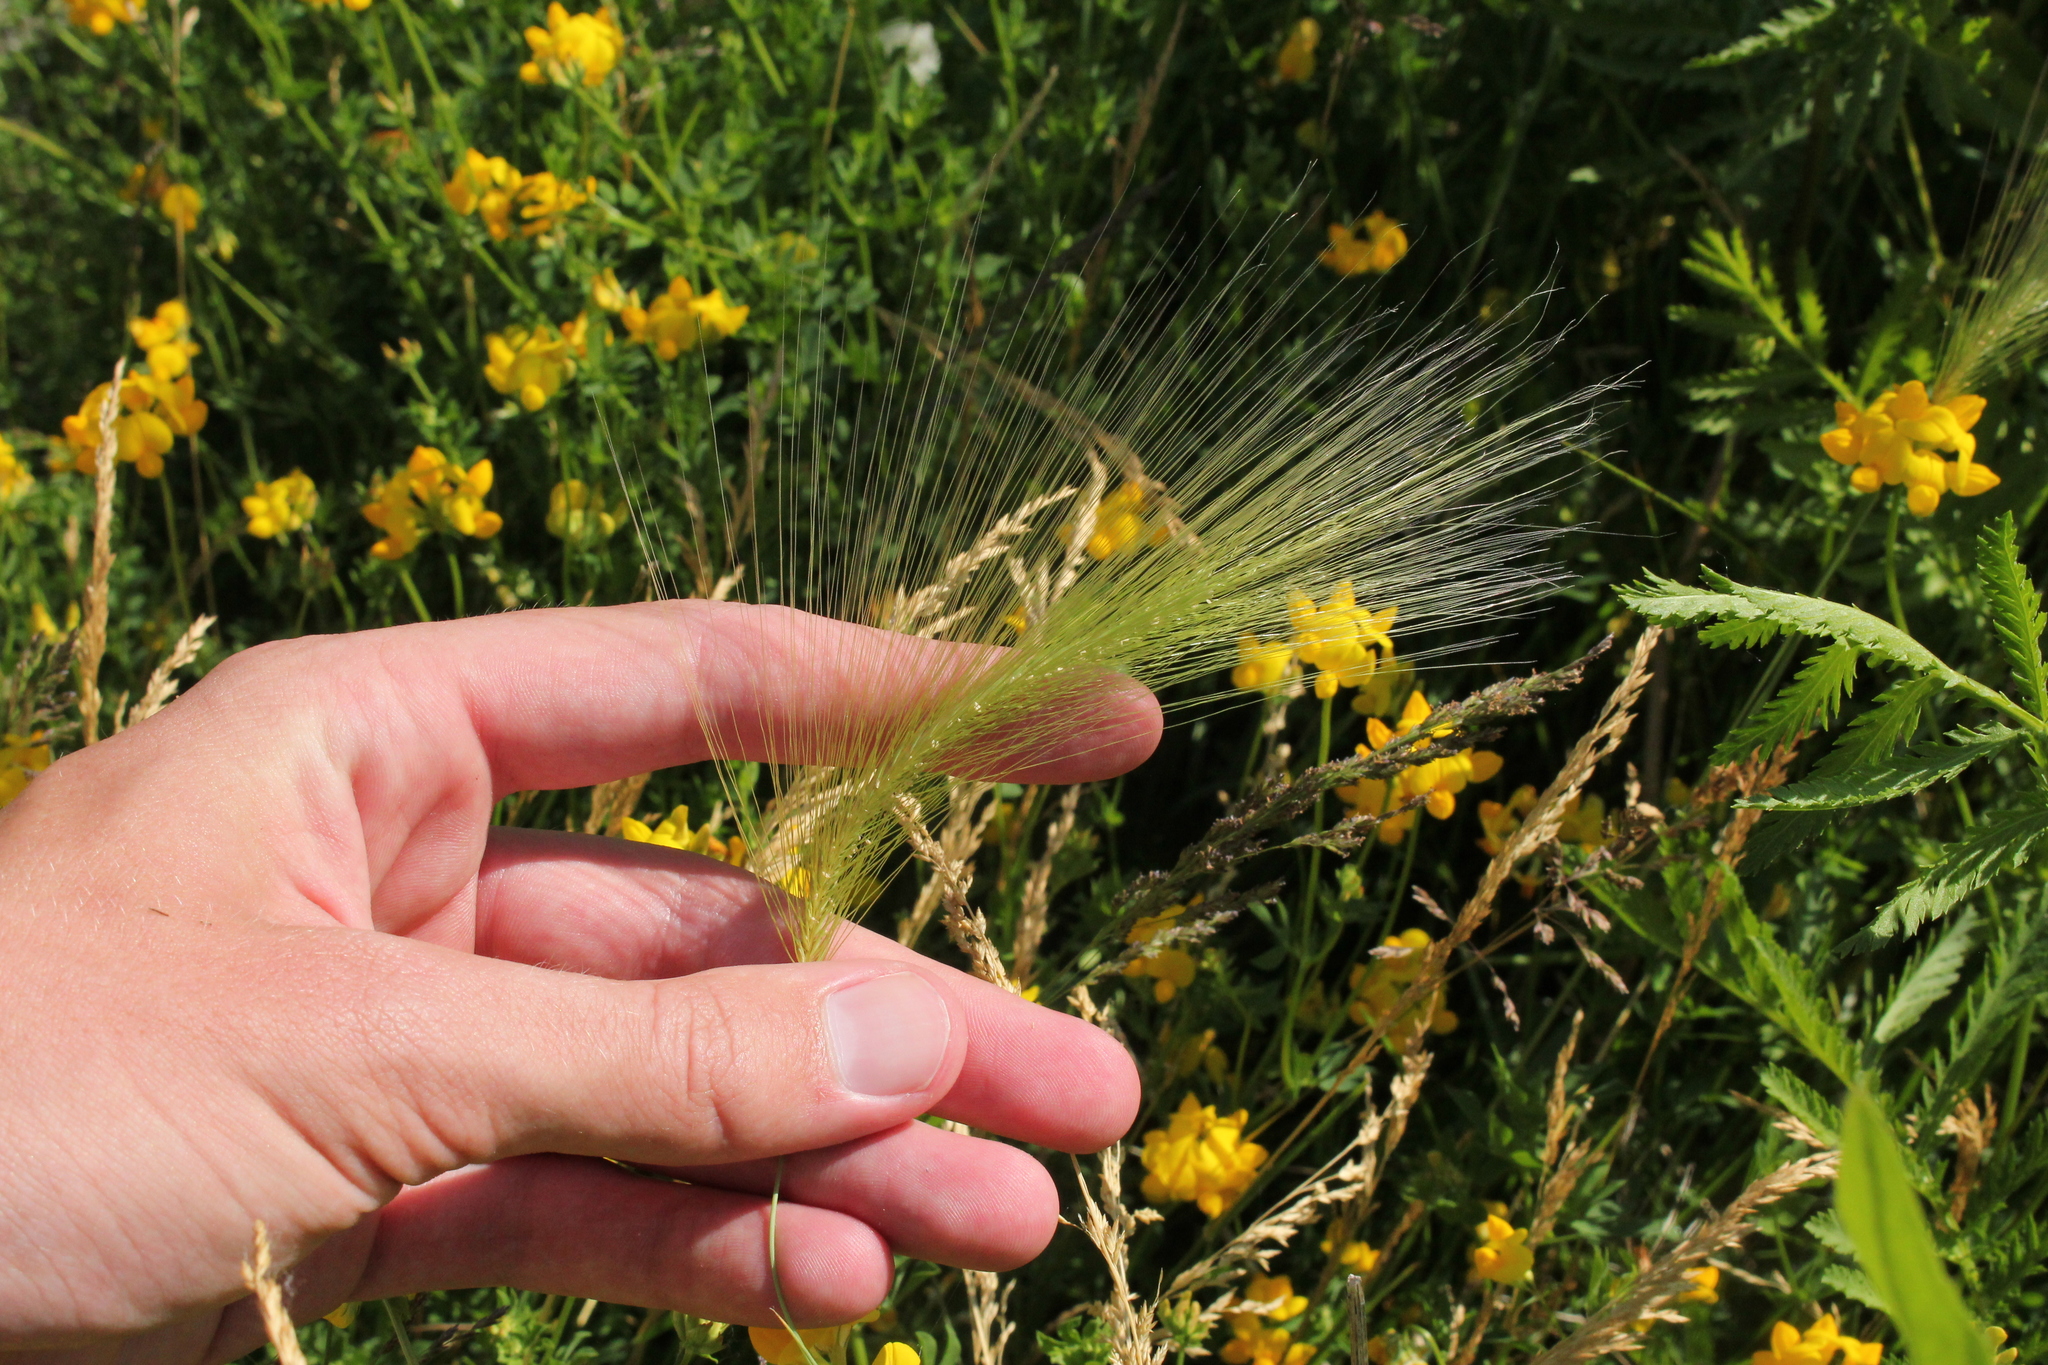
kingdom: Plantae
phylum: Tracheophyta
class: Liliopsida
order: Poales
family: Poaceae
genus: Hordeum
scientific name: Hordeum jubatum
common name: Foxtail barley
